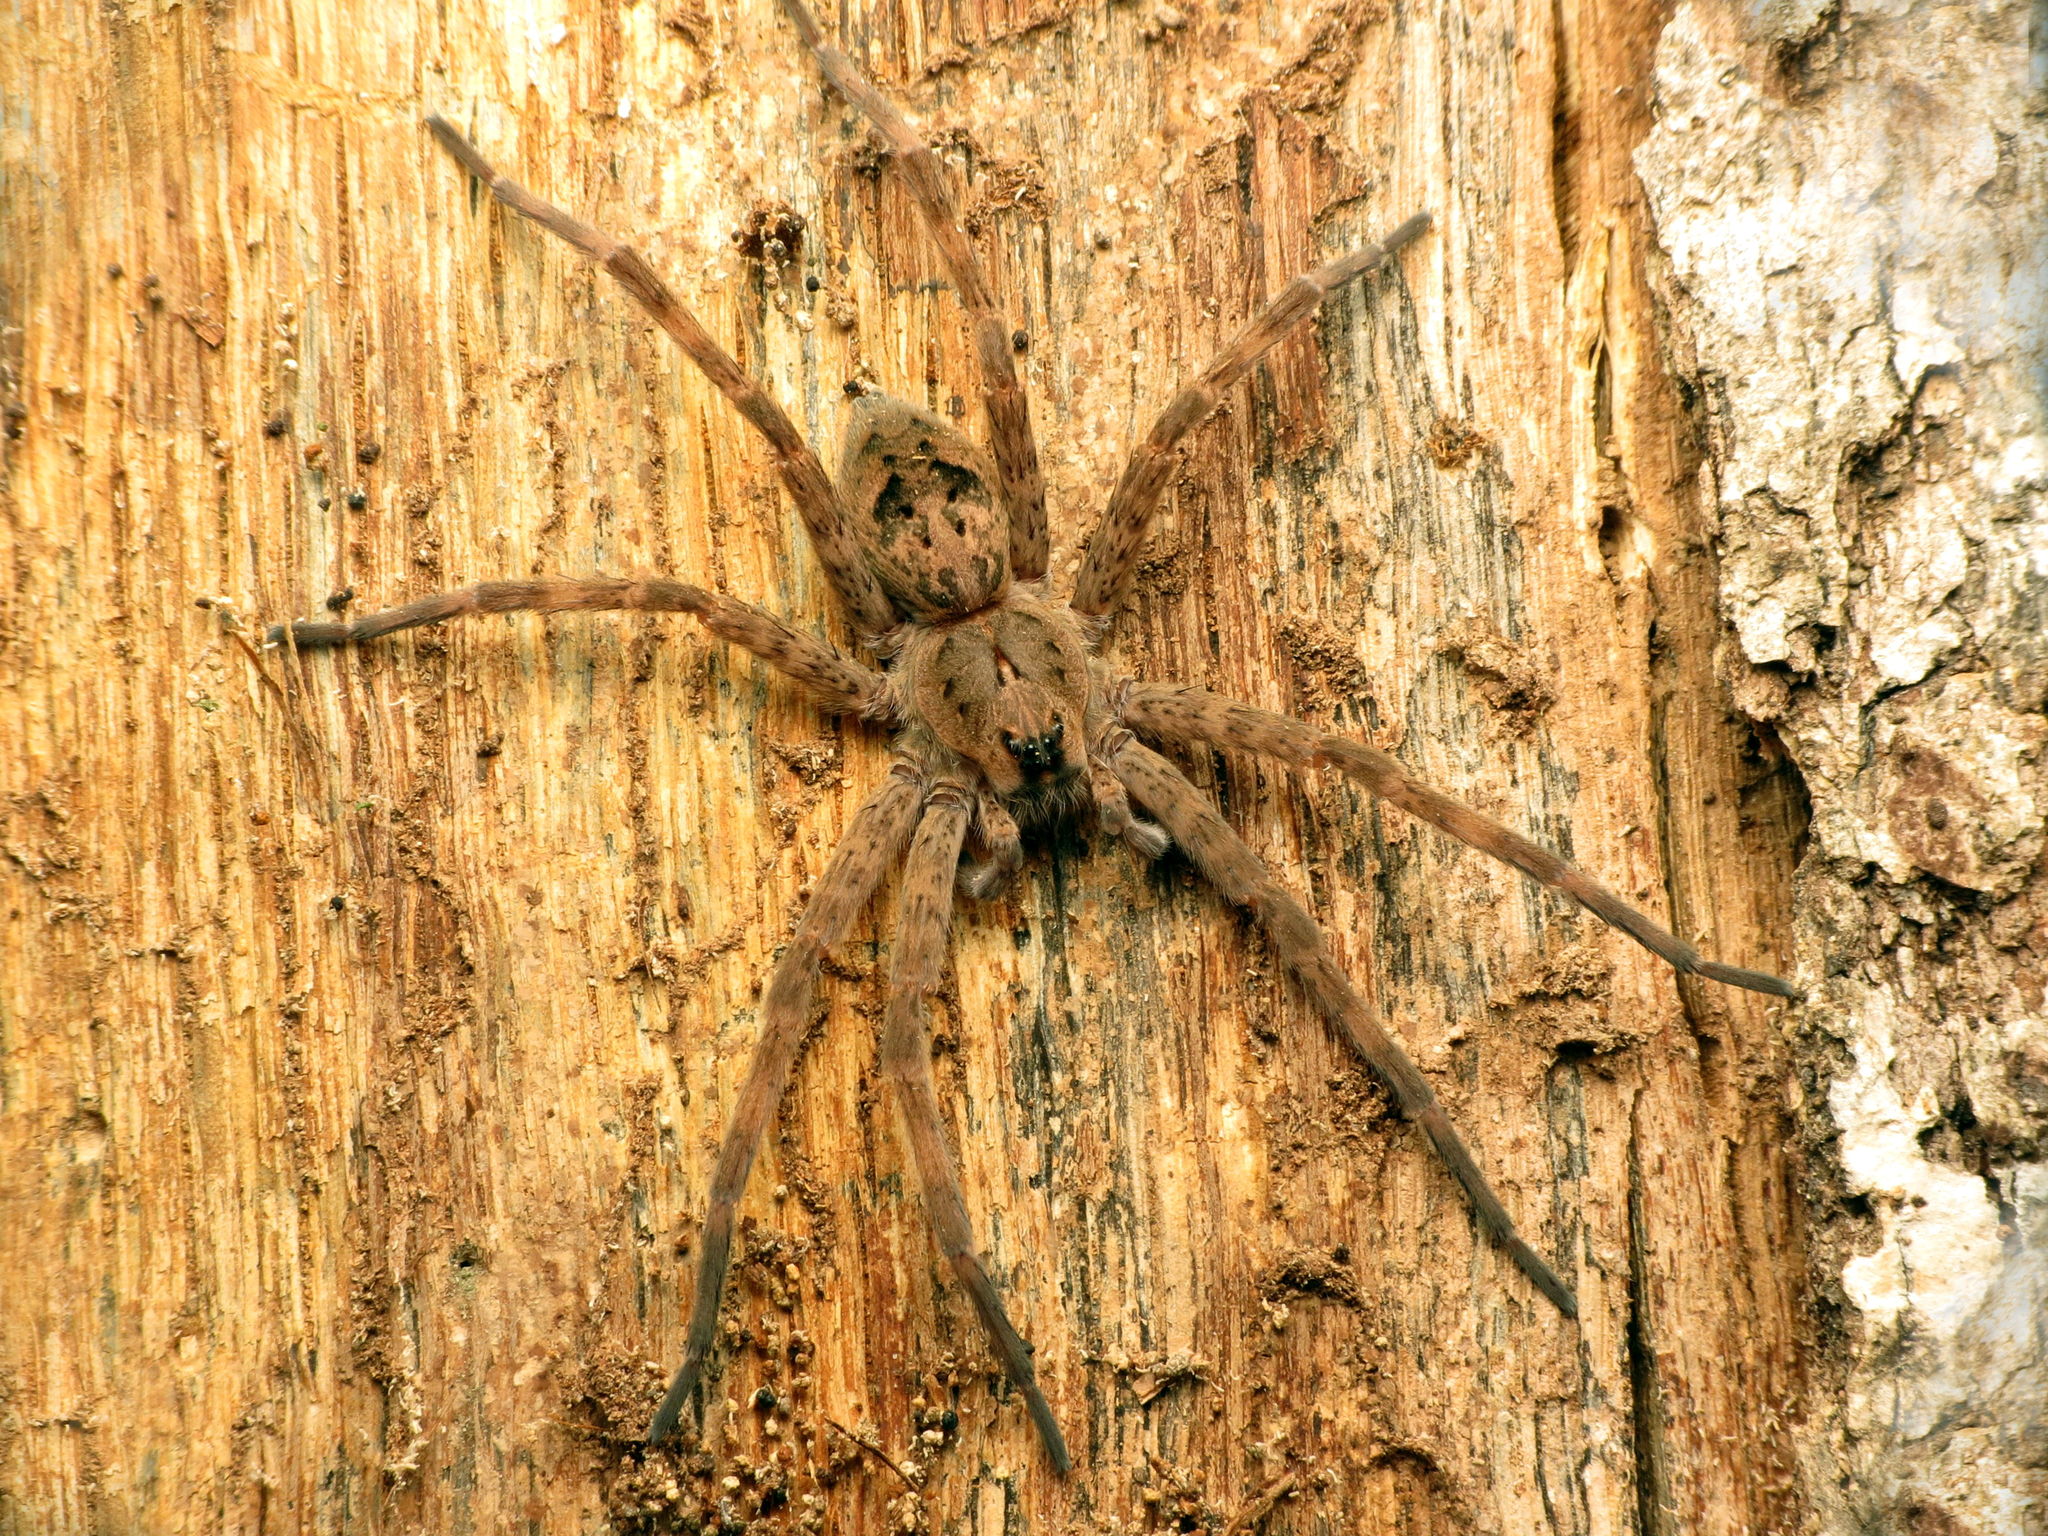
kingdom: Animalia
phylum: Arthropoda
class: Arachnida
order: Araneae
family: Pisauridae
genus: Dolomedes
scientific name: Dolomedes tenebrosus
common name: Dark fishing spider
